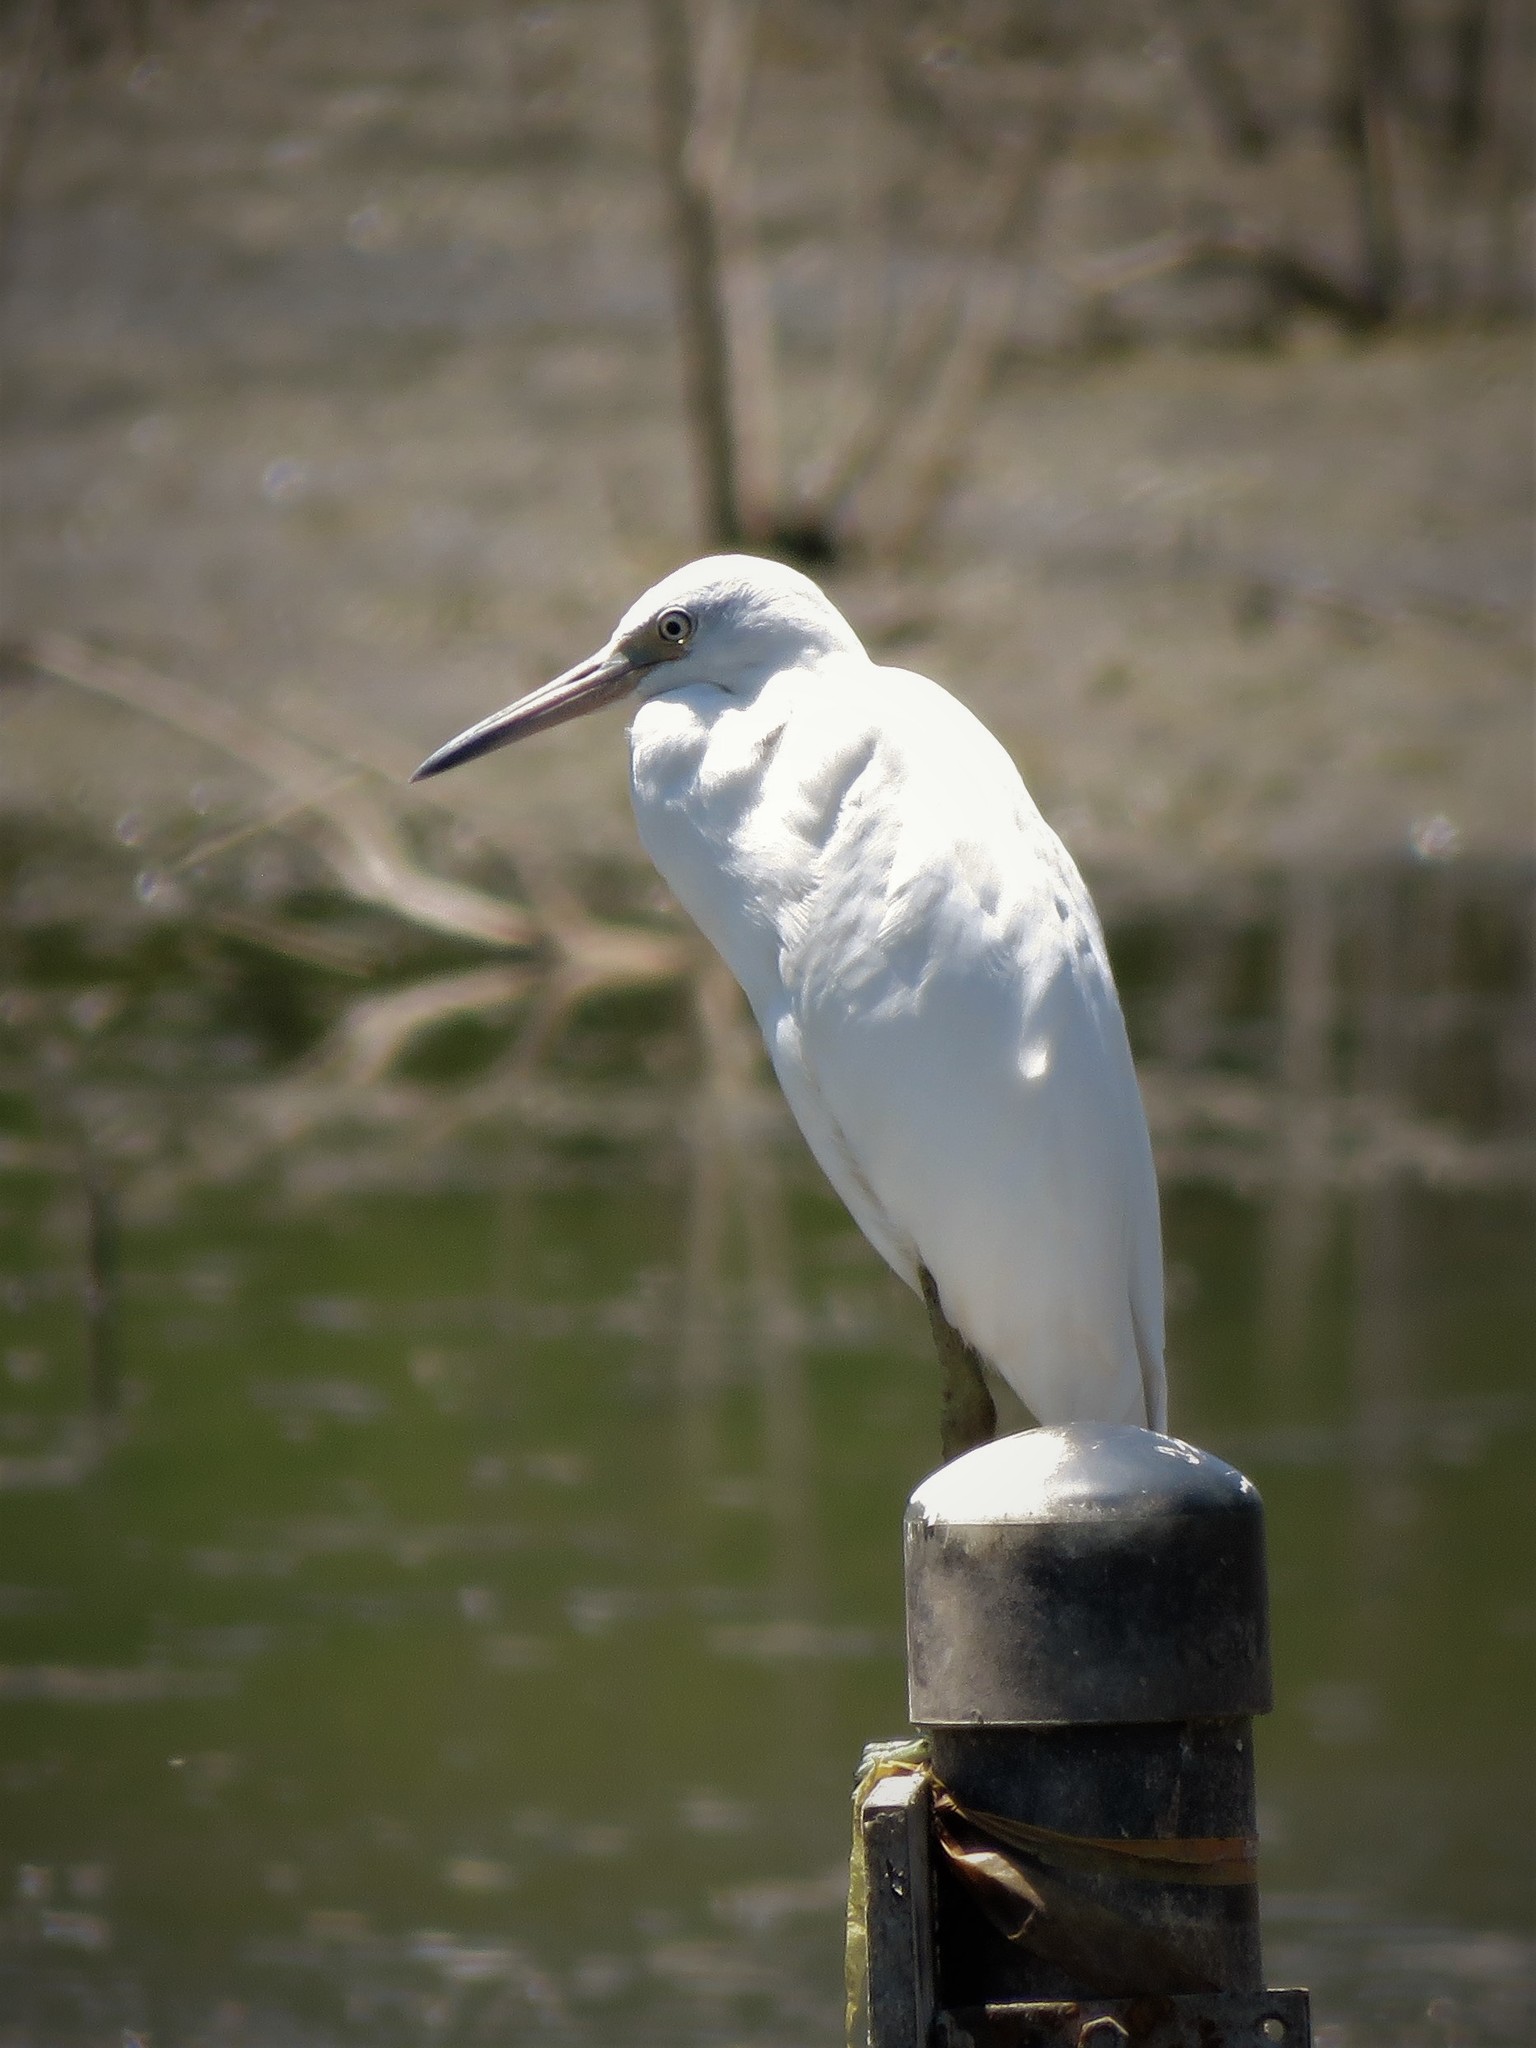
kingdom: Animalia
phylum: Chordata
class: Aves
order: Pelecaniformes
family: Ardeidae
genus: Egretta
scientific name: Egretta caerulea
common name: Little blue heron
